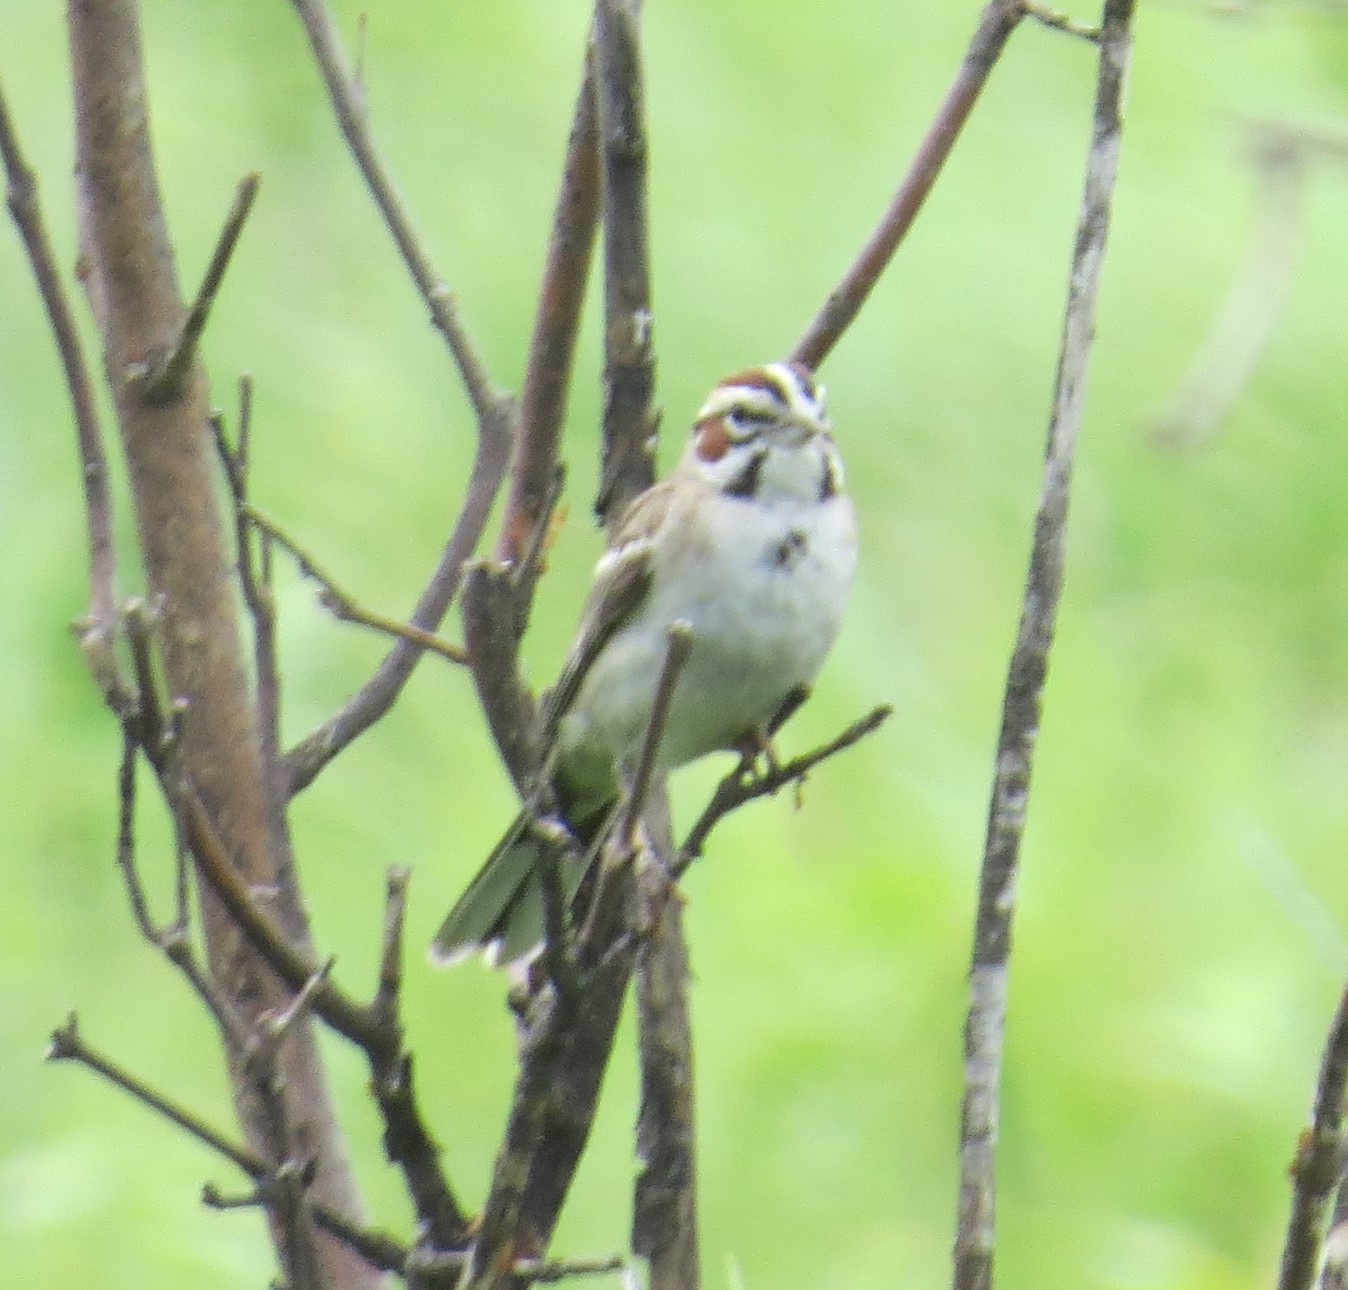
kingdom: Animalia
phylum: Chordata
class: Aves
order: Passeriformes
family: Passerellidae
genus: Chondestes
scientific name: Chondestes grammacus
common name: Lark sparrow
